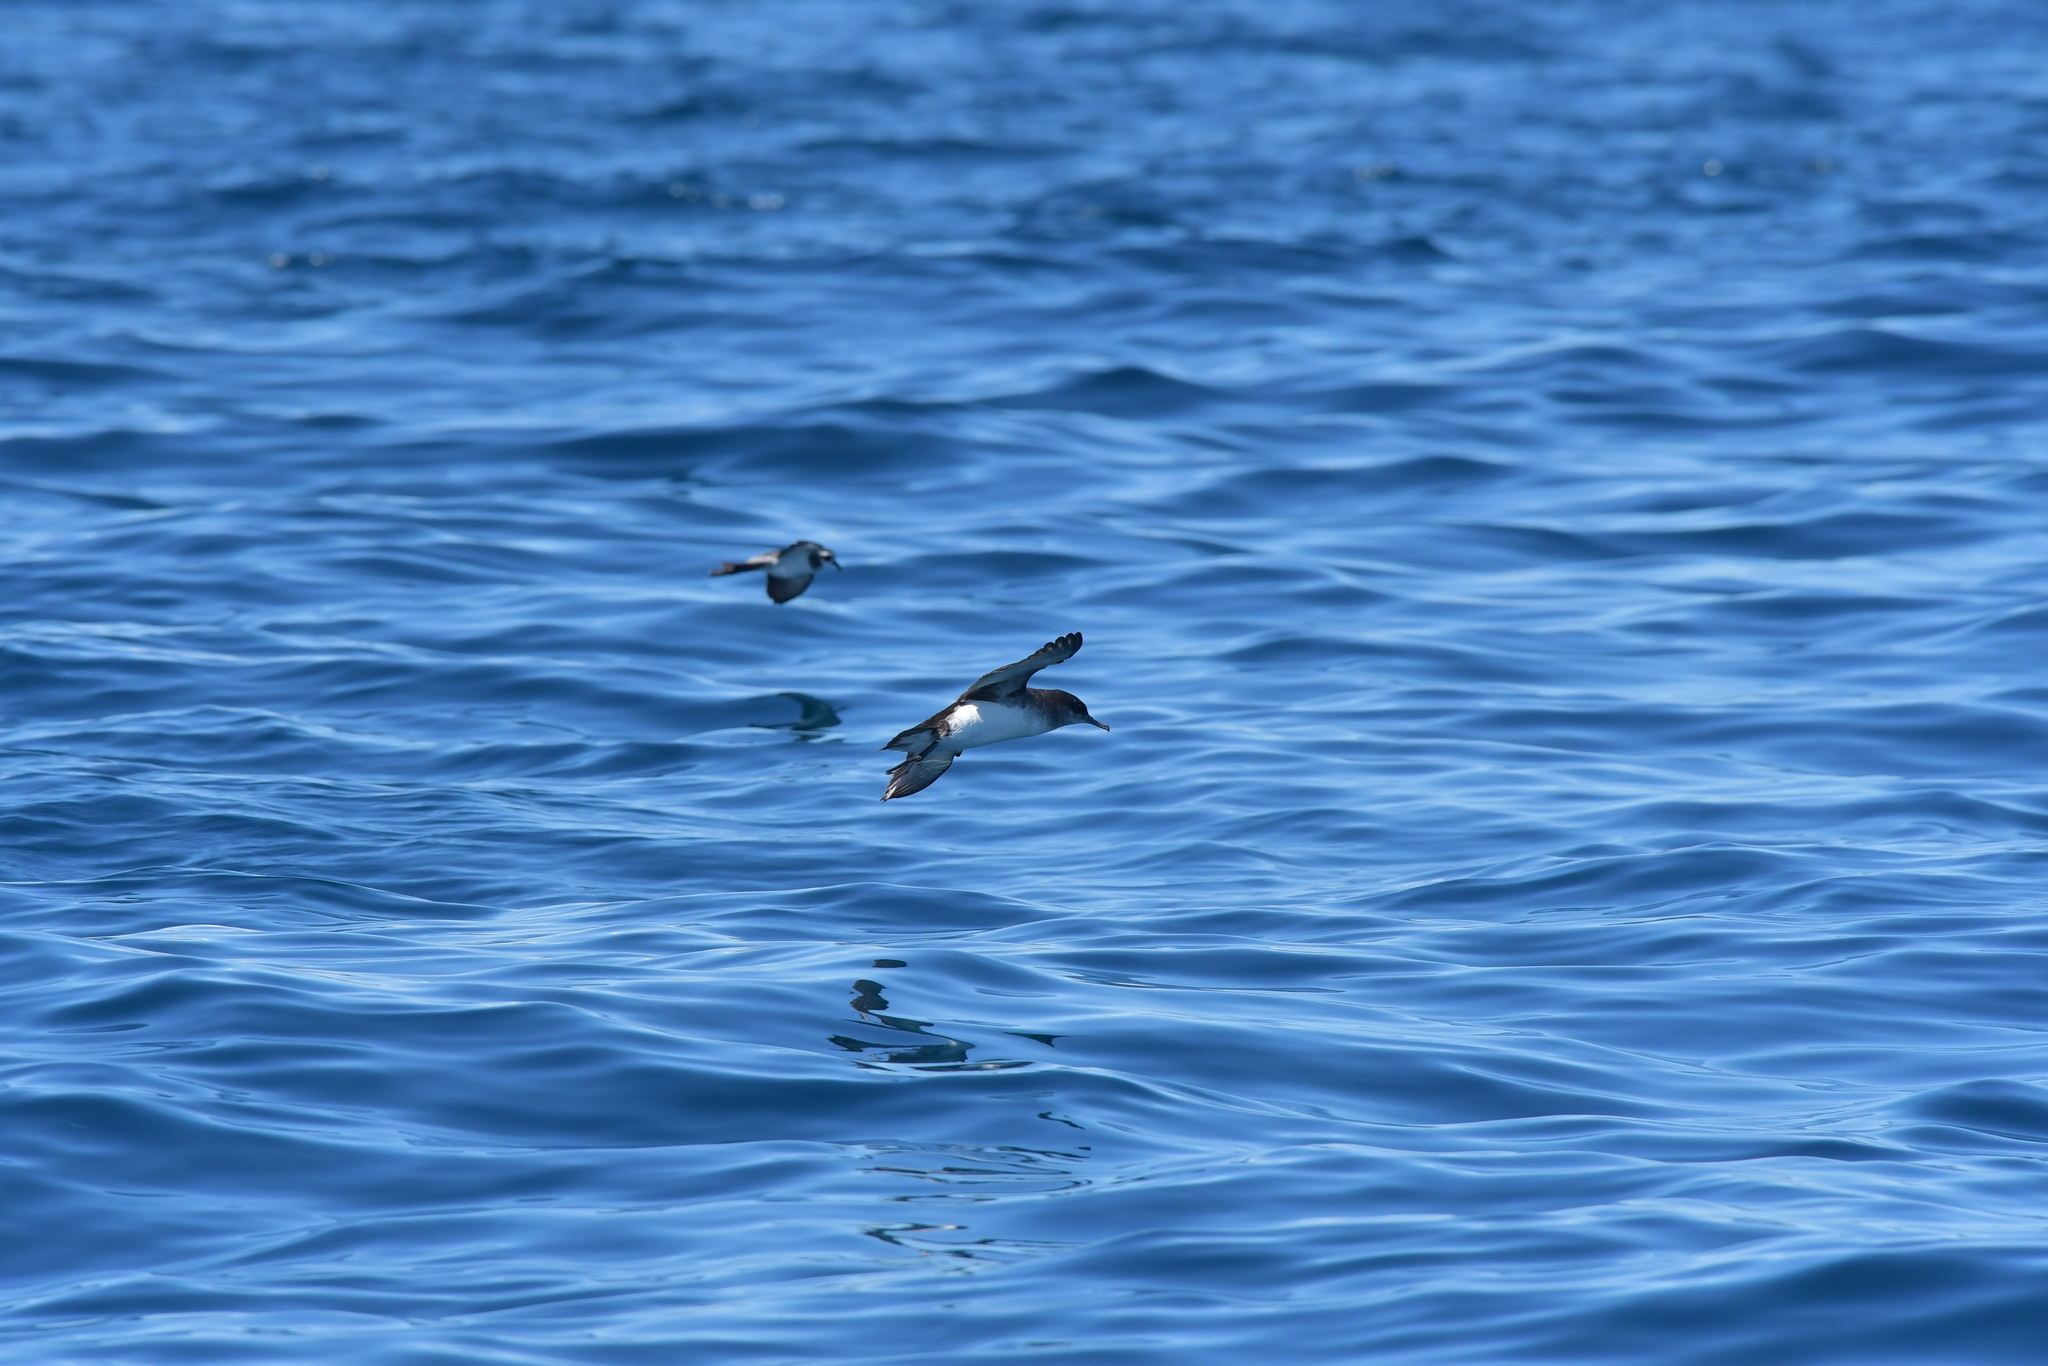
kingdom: Animalia
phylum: Chordata
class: Aves
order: Procellariiformes
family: Procellariidae
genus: Puffinus
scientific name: Puffinus gavia
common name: Fluttering shearwater
